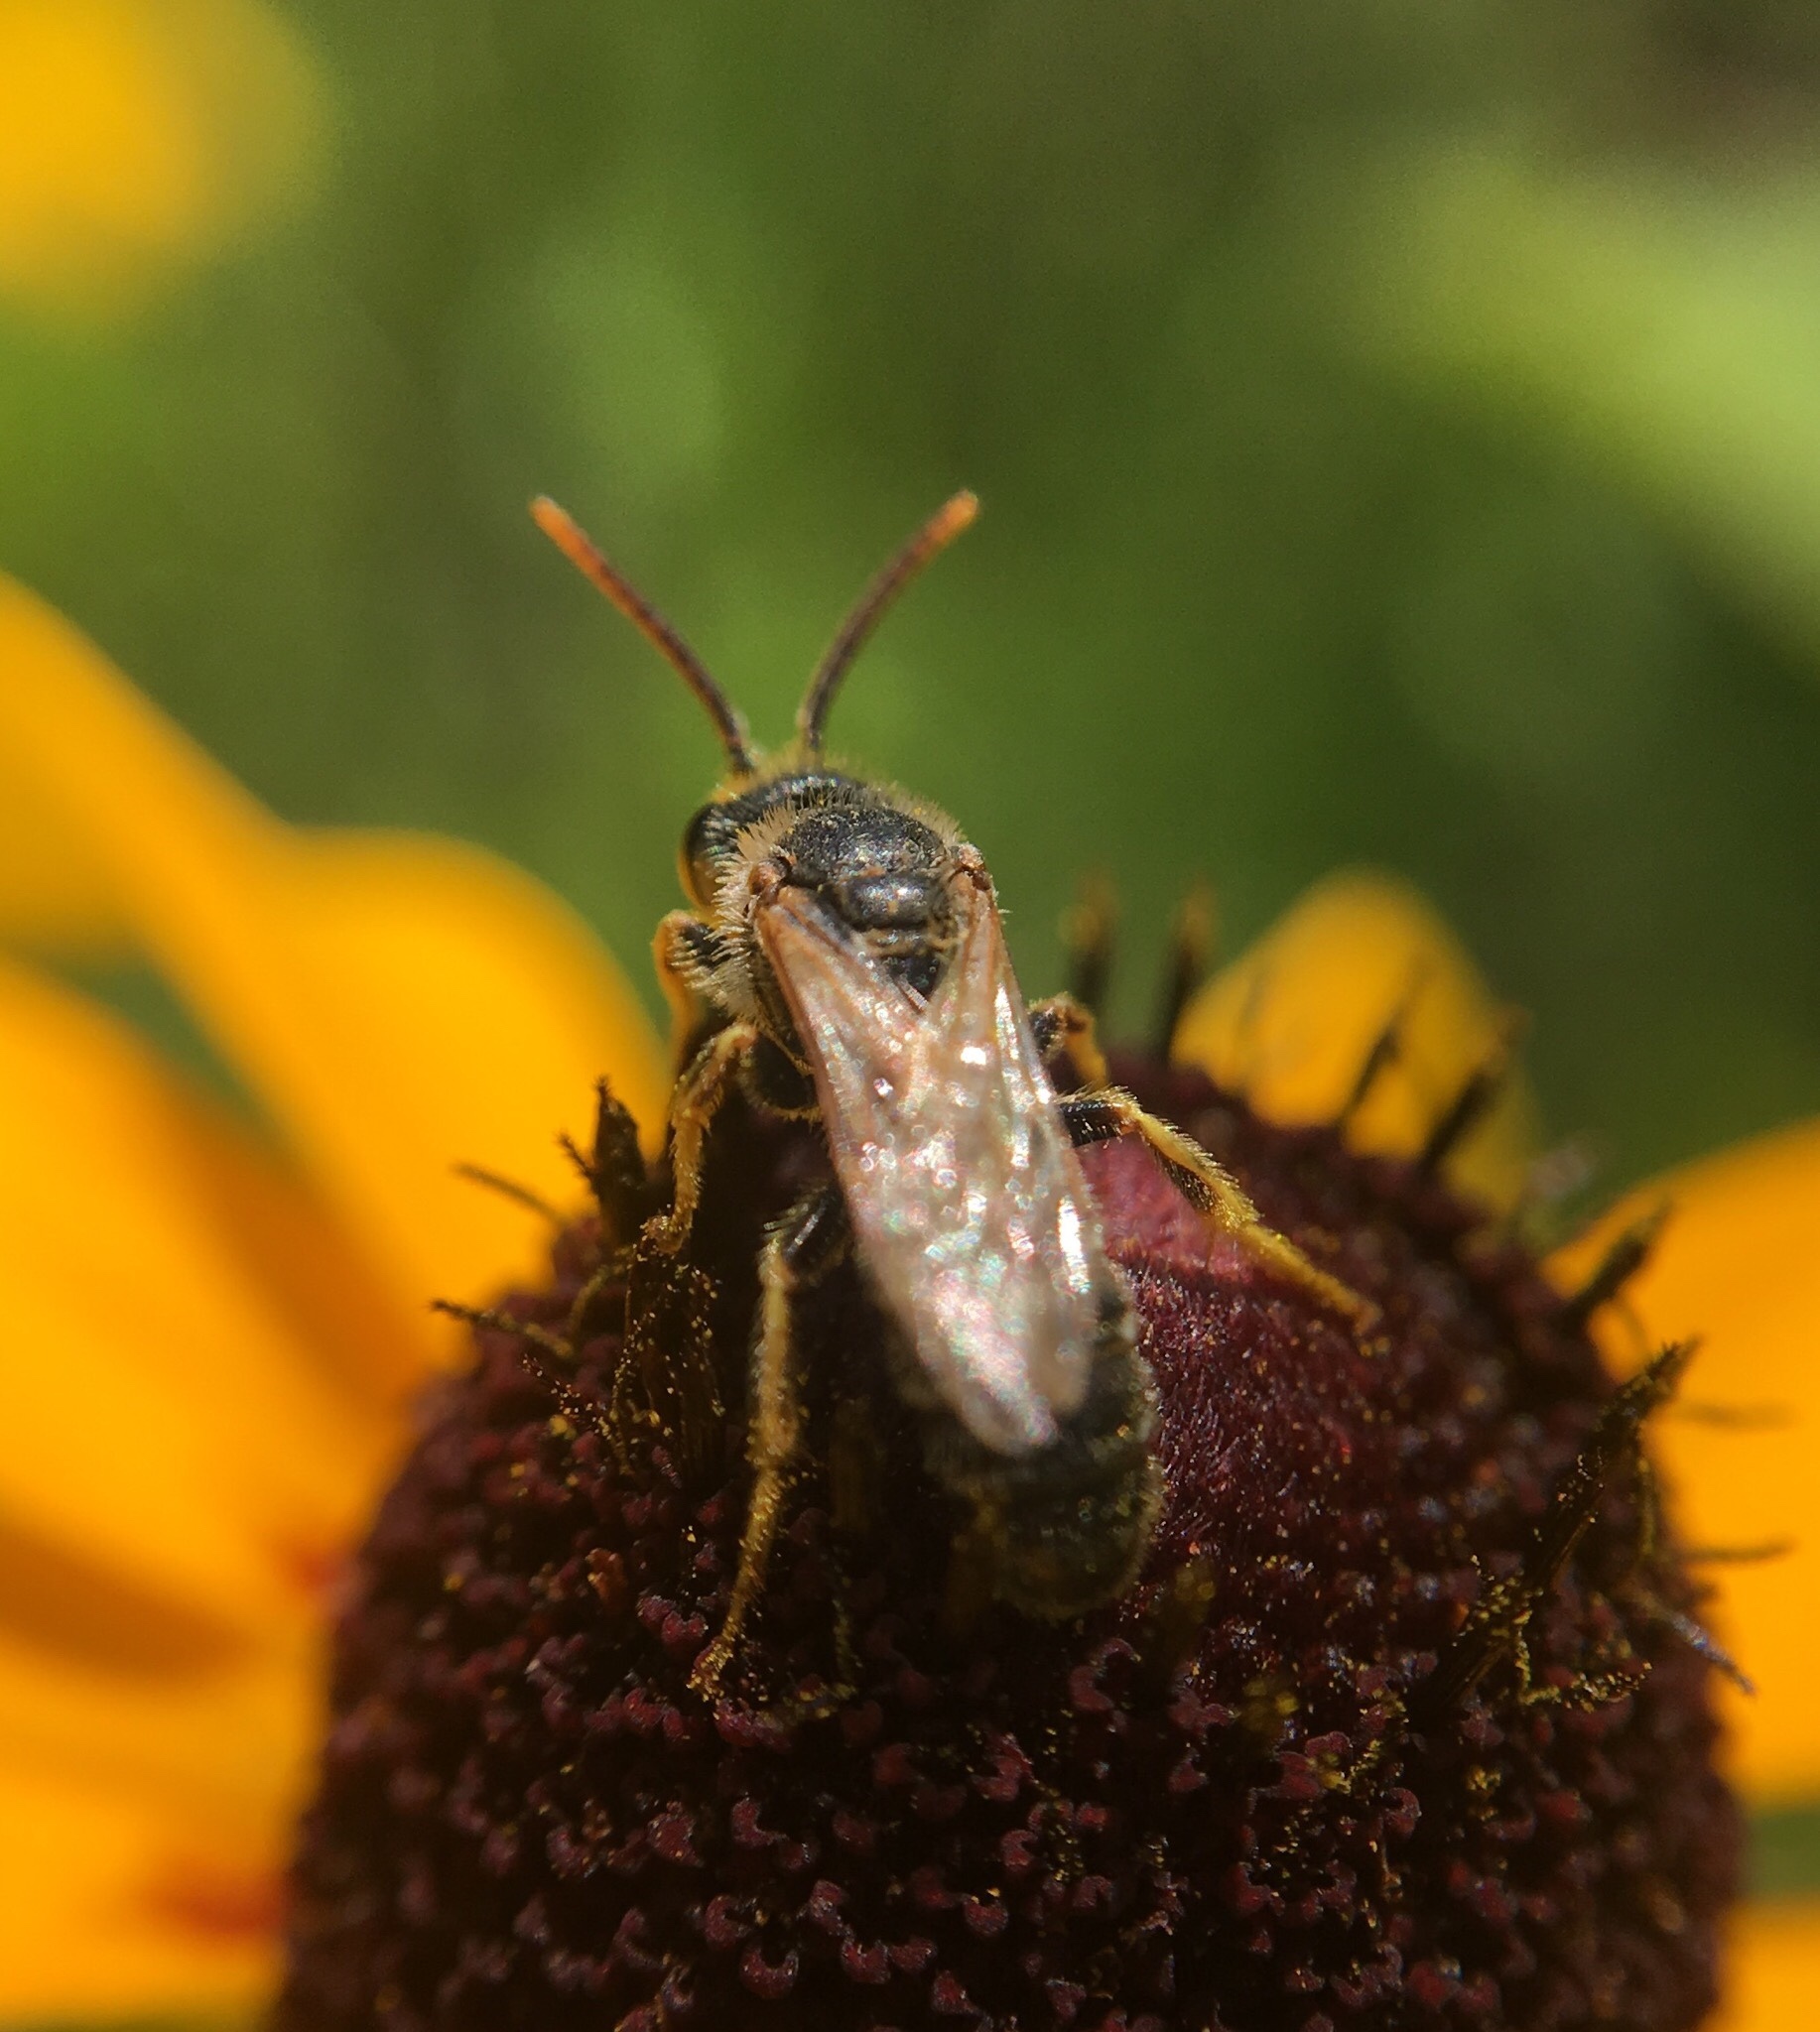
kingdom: Animalia
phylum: Arthropoda
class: Insecta
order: Hymenoptera
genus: Odontalictus
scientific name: Odontalictus
